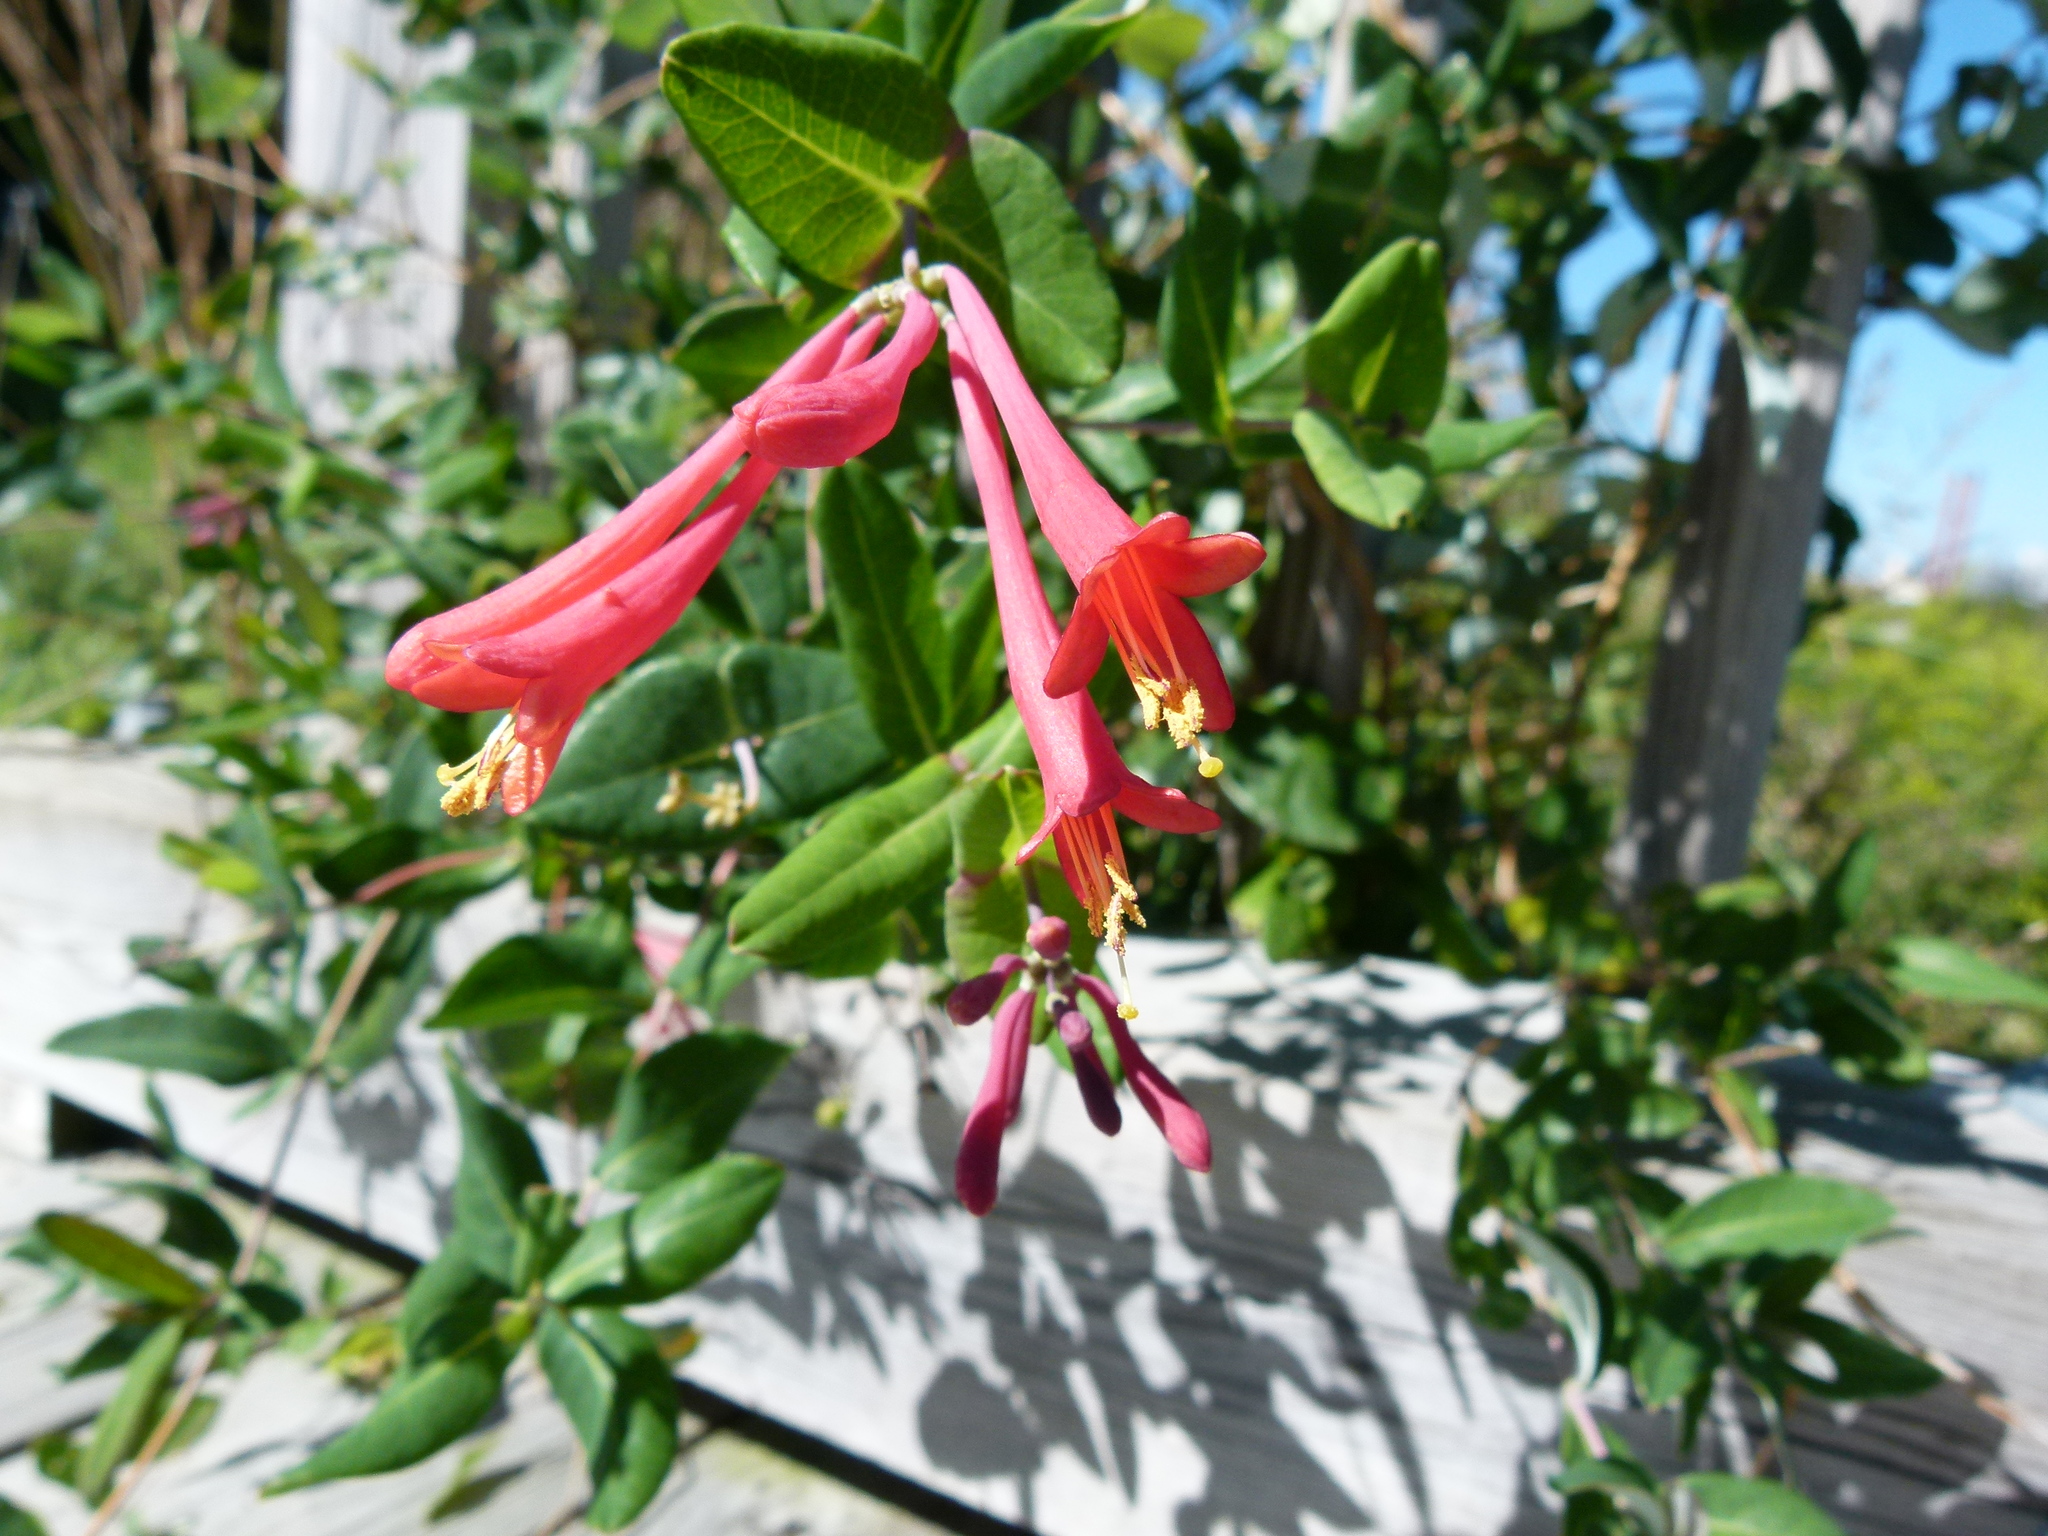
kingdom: Plantae
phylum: Tracheophyta
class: Magnoliopsida
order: Dipsacales
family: Caprifoliaceae
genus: Lonicera
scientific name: Lonicera sempervirens
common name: Coral honeysuckle
